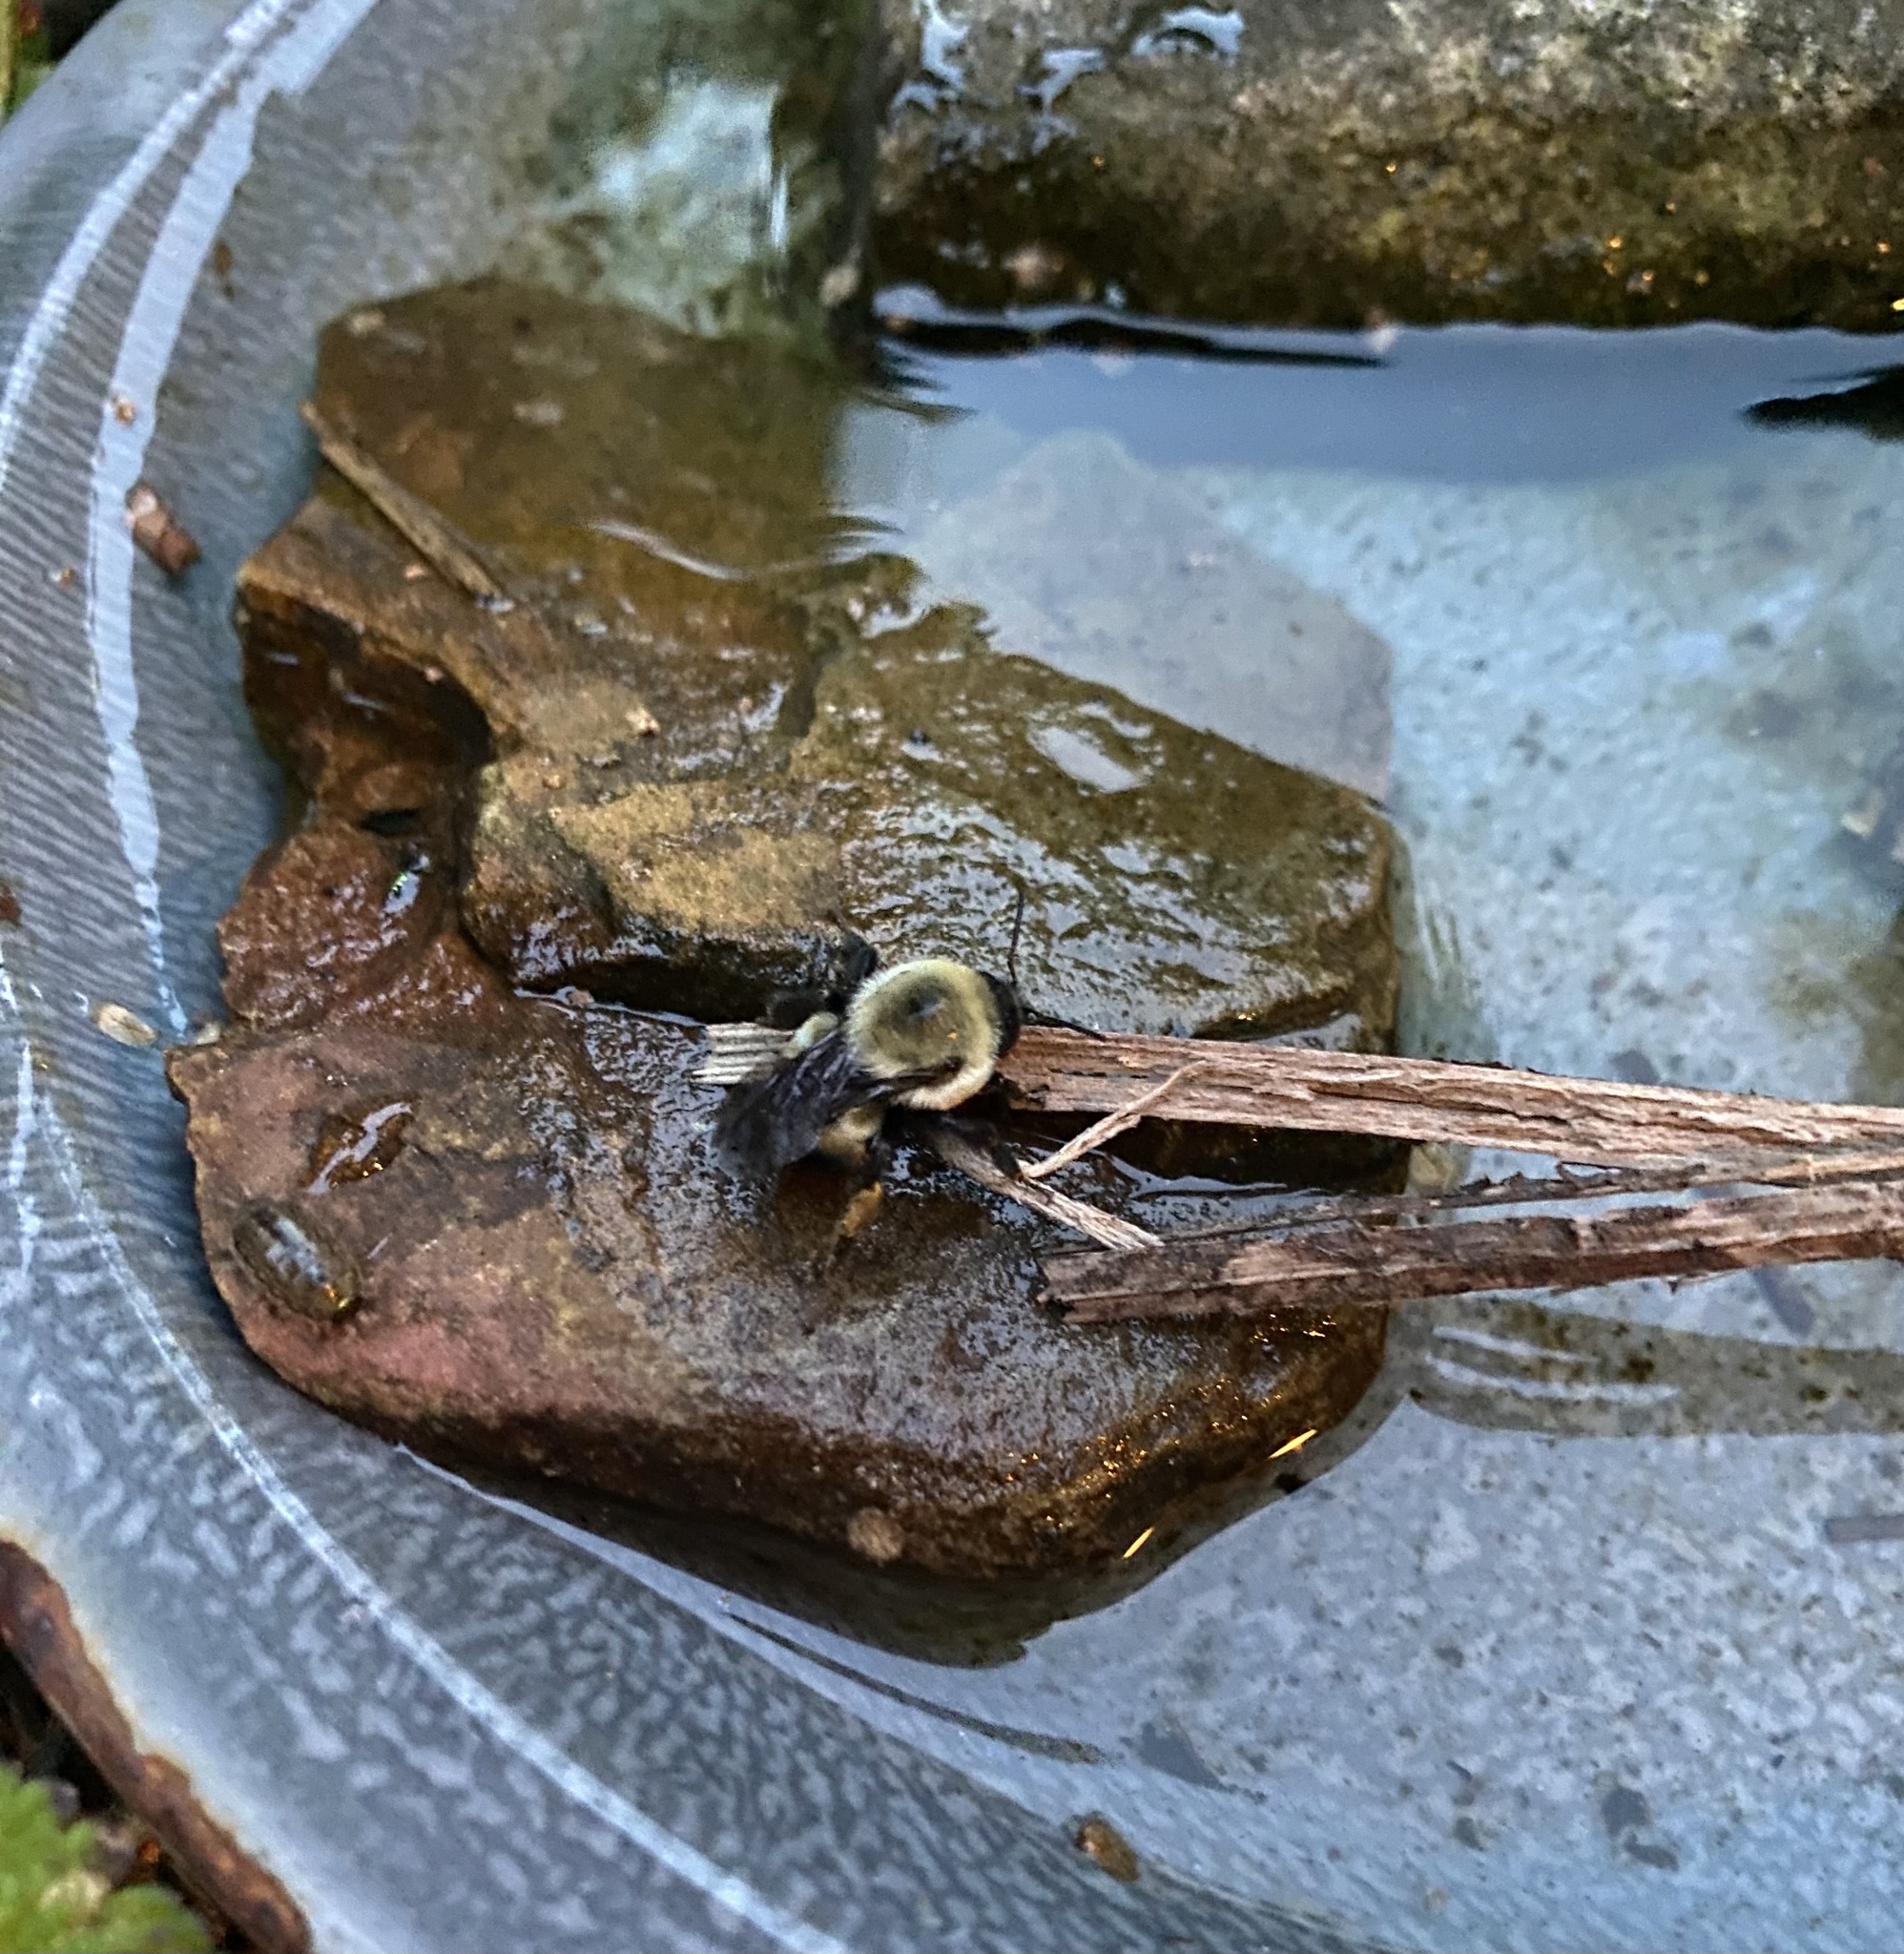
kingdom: Animalia
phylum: Arthropoda
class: Insecta
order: Hymenoptera
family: Apidae
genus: Bombus
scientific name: Bombus griseocollis
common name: Brown-belted bumble bee
